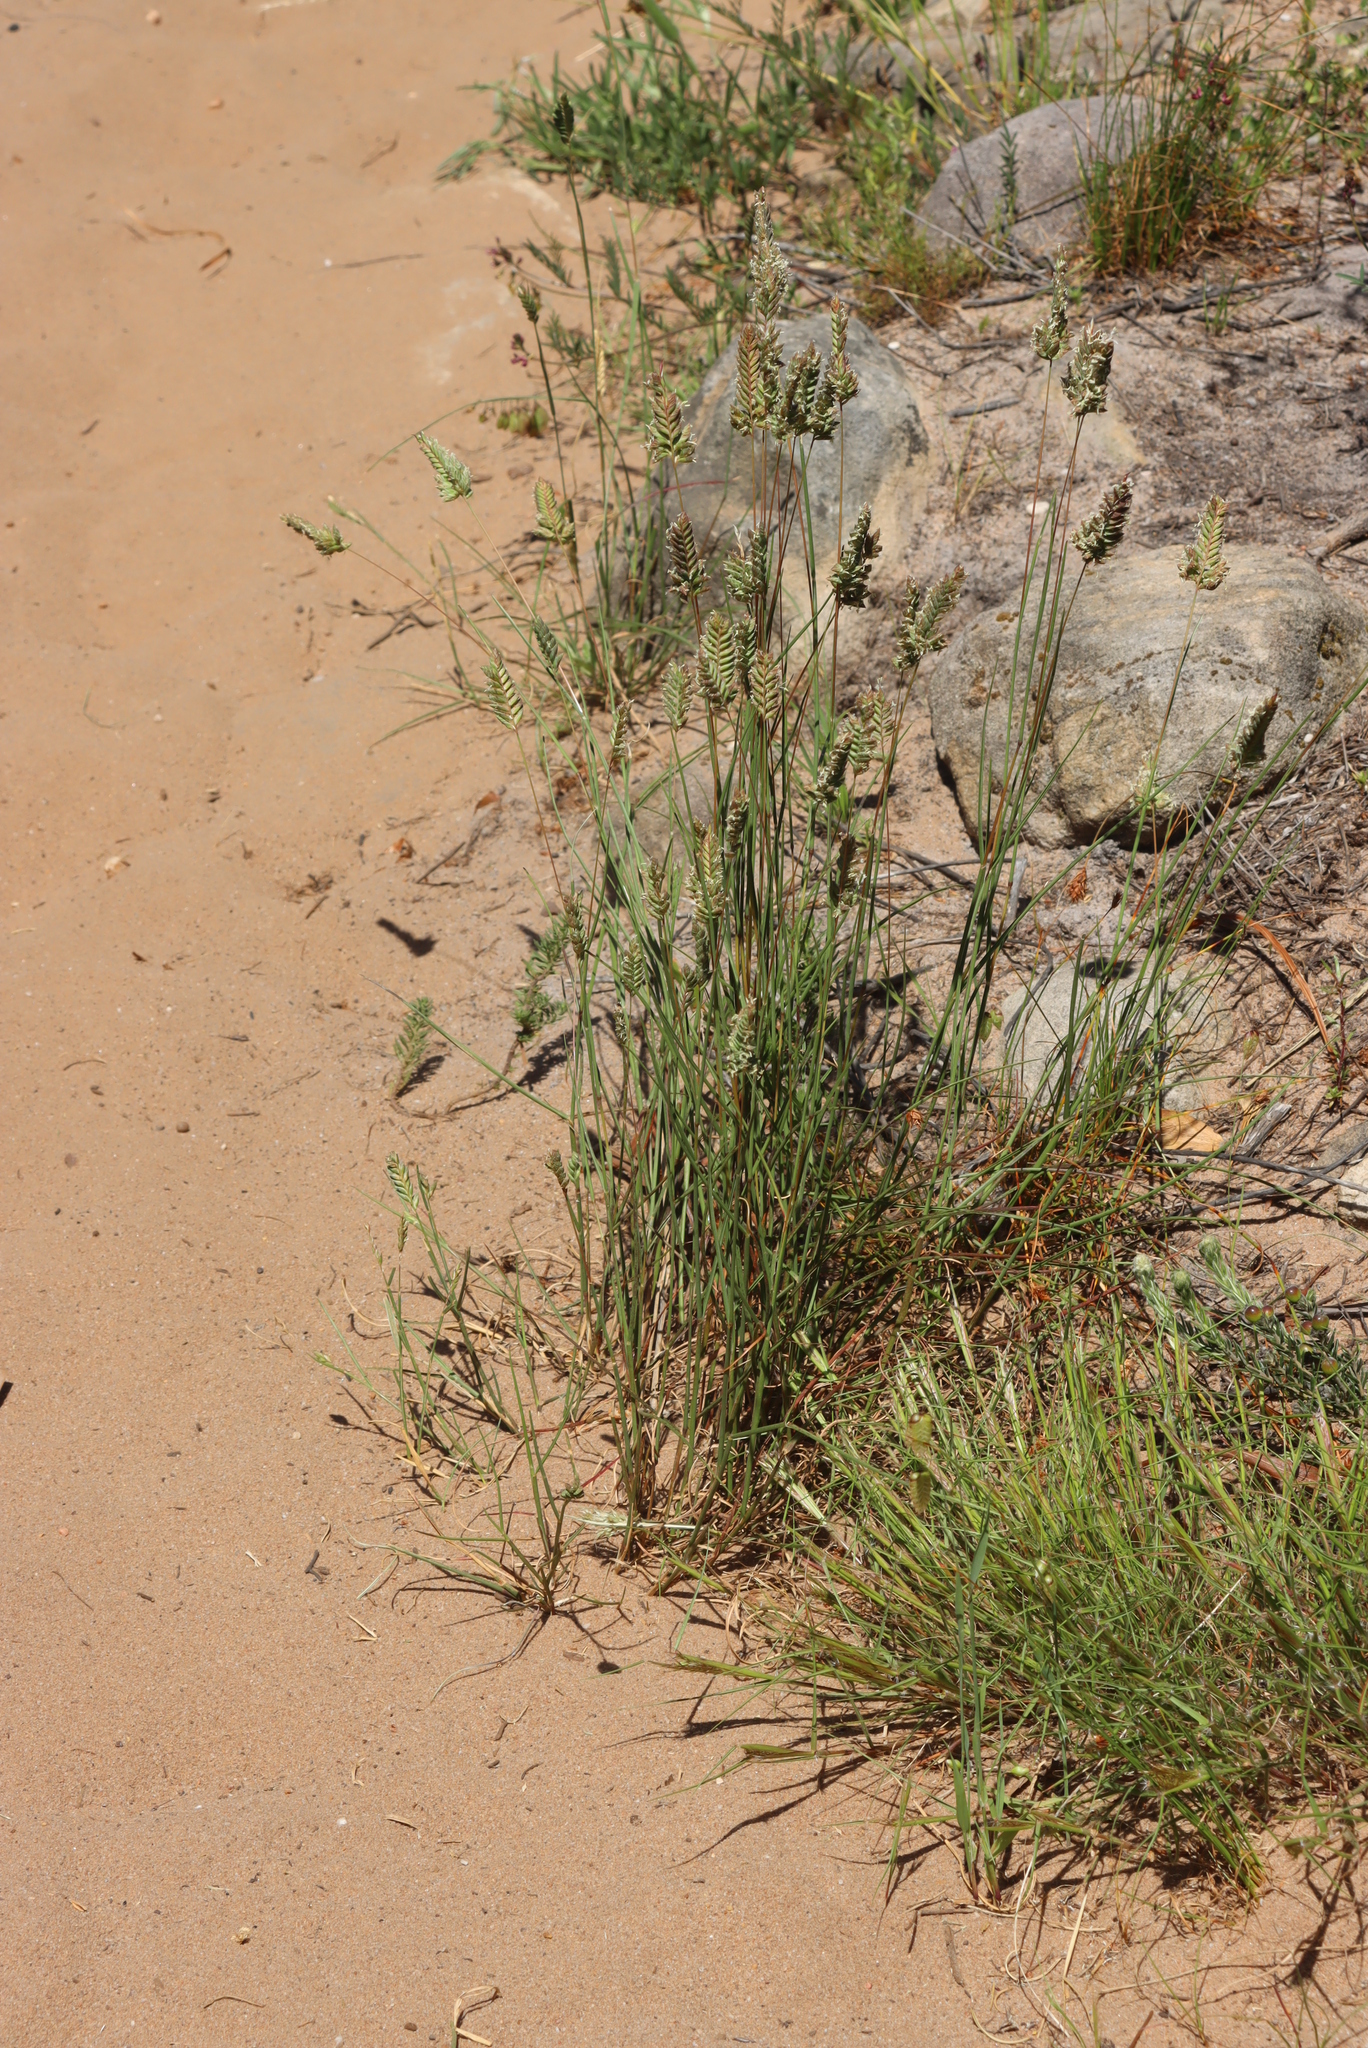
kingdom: Plantae
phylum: Tracheophyta
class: Liliopsida
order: Poales
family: Poaceae
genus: Tribolium
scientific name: Tribolium uniolae
